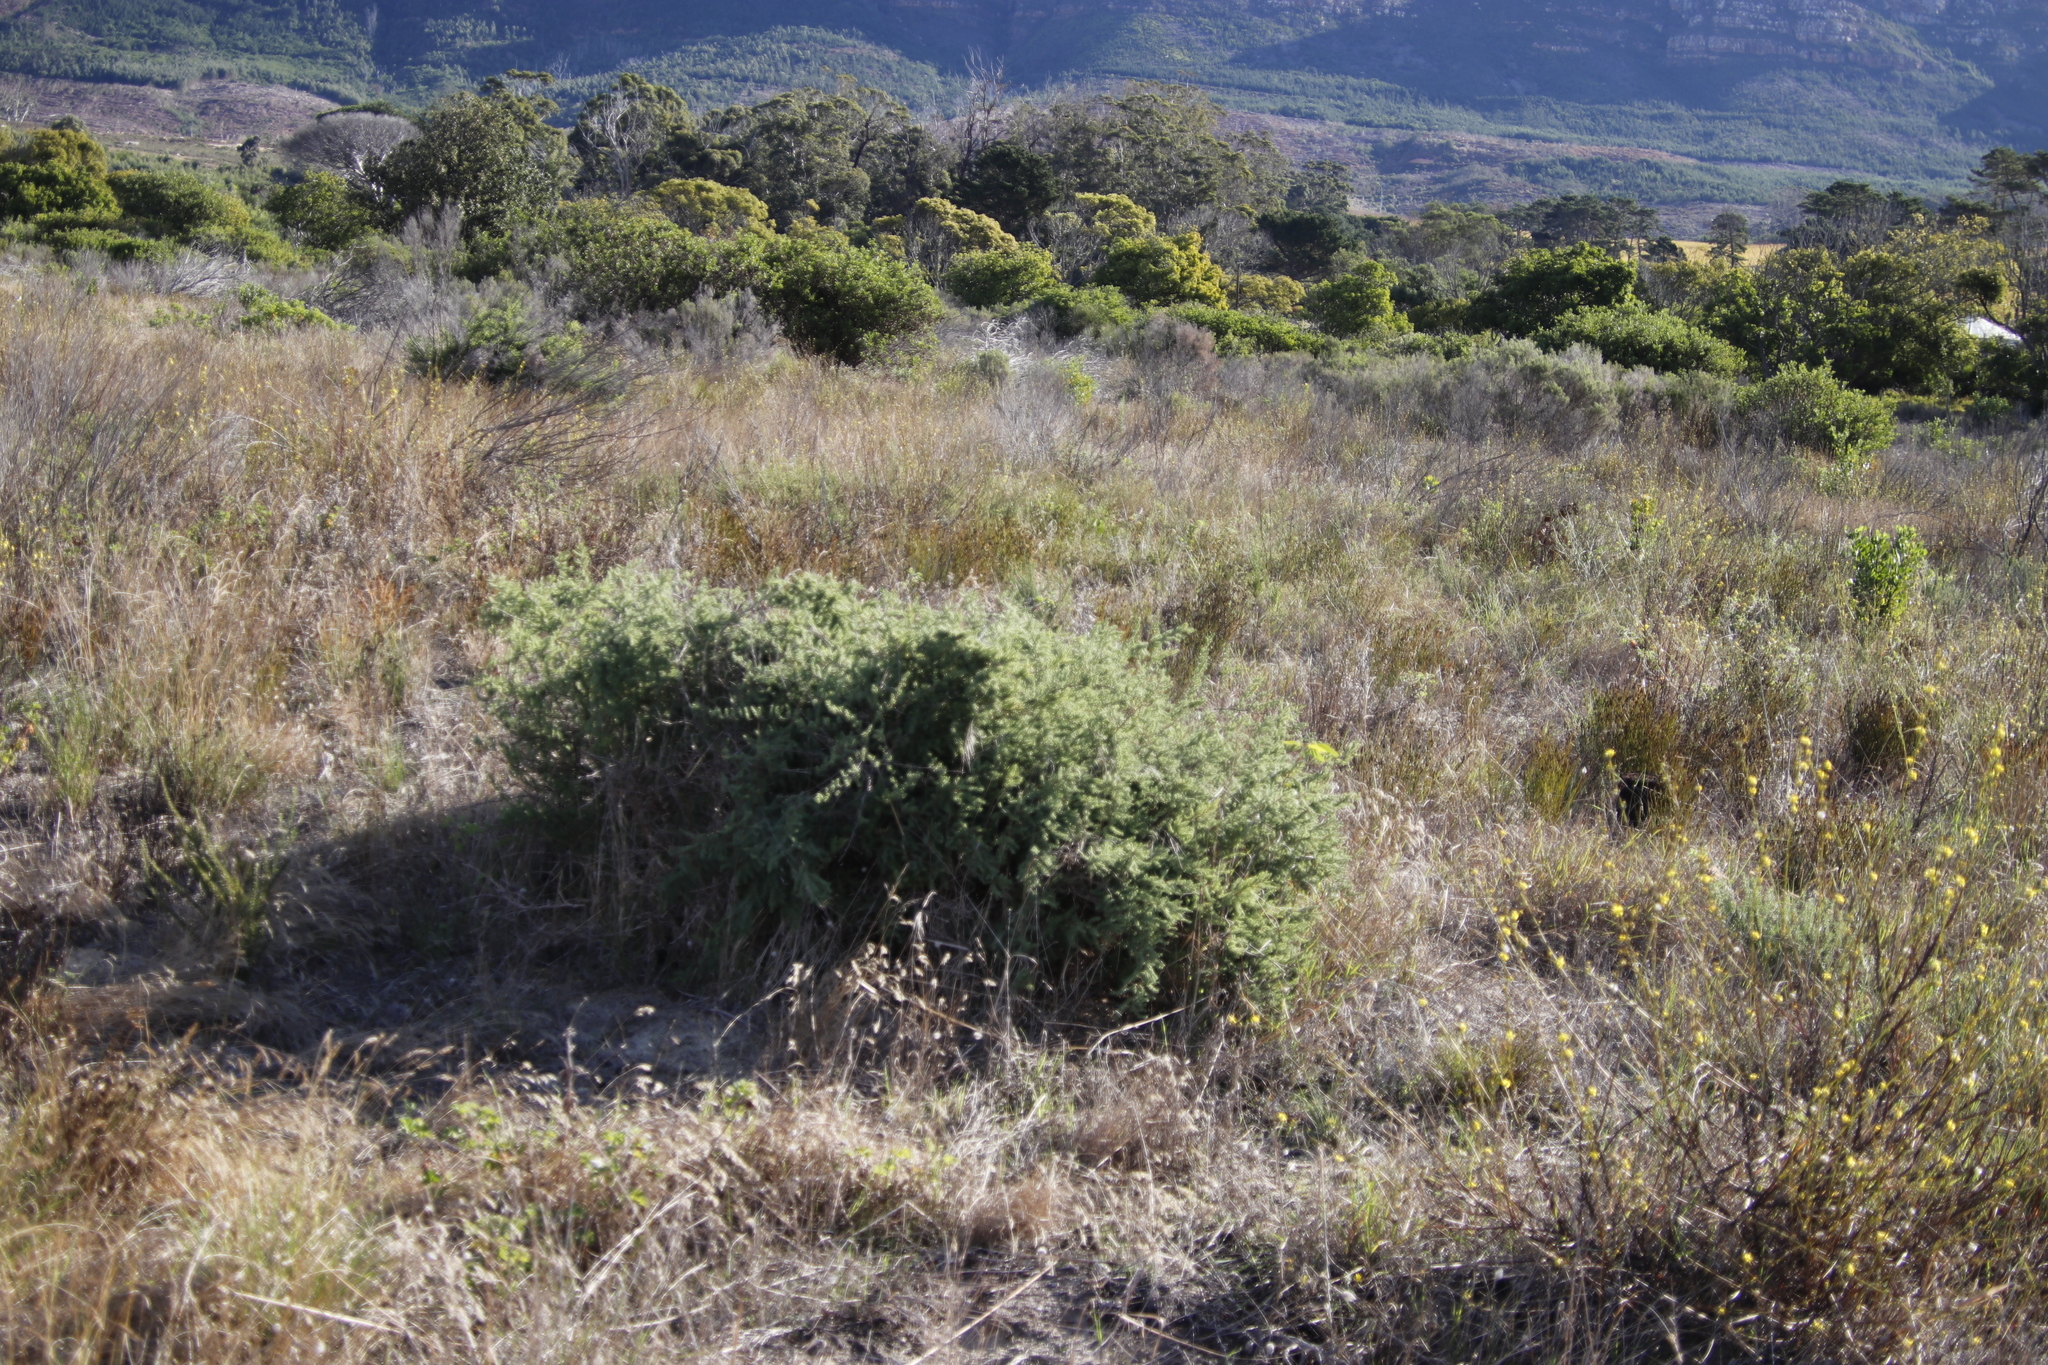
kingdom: Plantae
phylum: Tracheophyta
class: Liliopsida
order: Asparagales
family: Asparagaceae
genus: Asparagus
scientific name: Asparagus rubicundus
